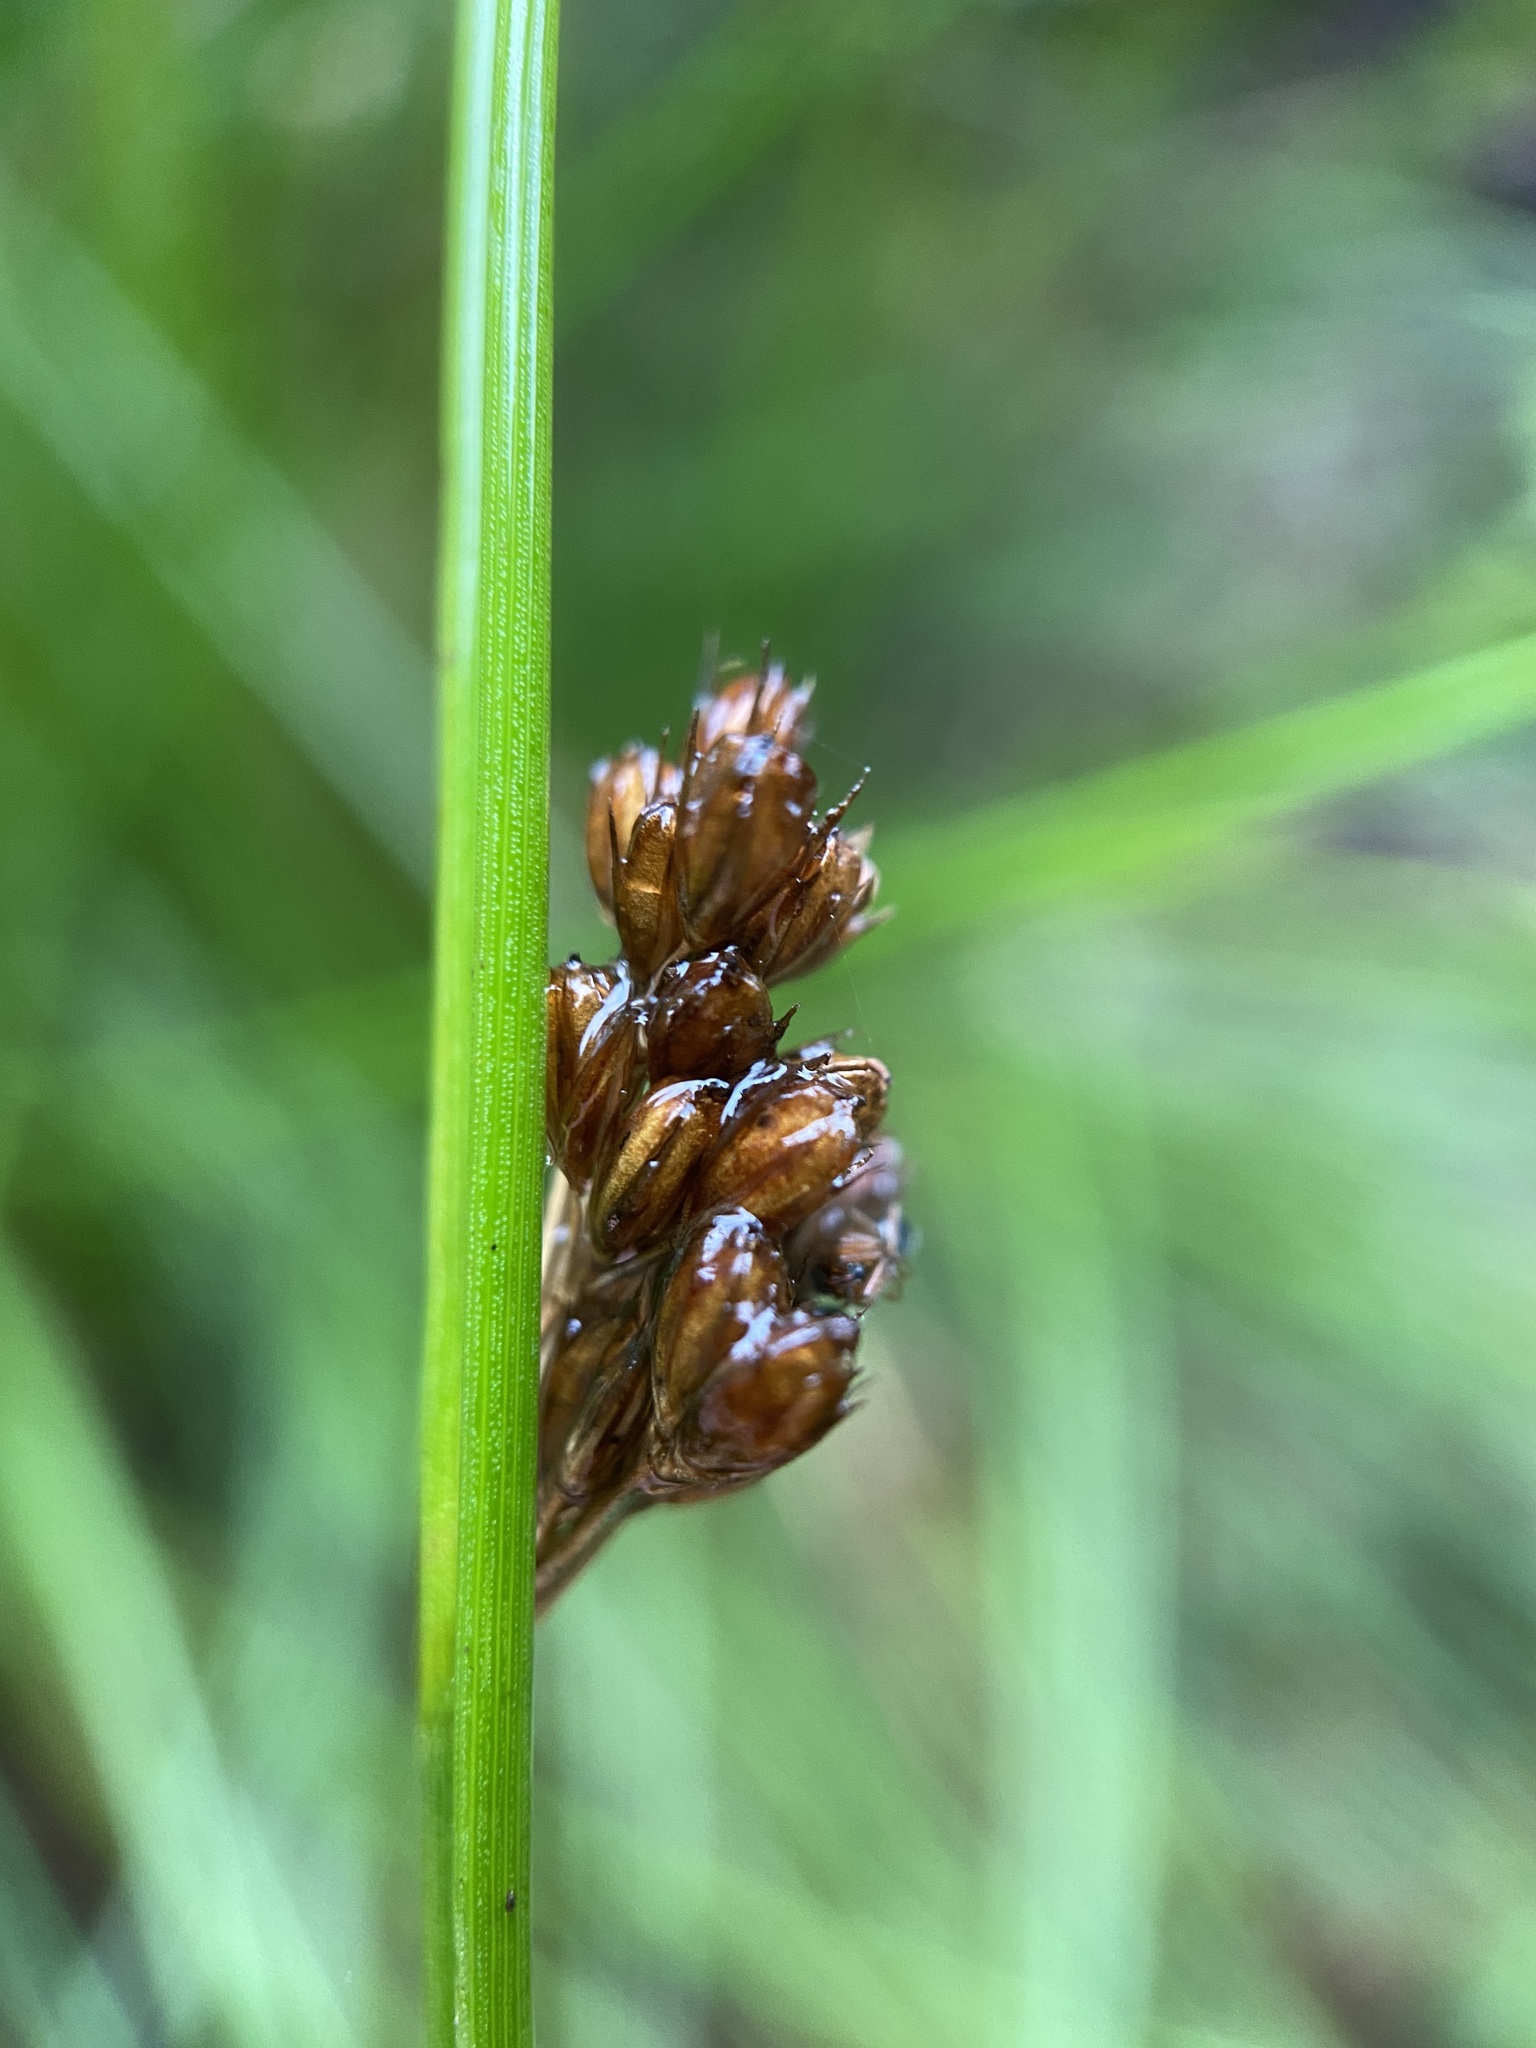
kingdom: Plantae
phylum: Tracheophyta
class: Liliopsida
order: Poales
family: Juncaceae
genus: Juncus
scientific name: Juncus effusus
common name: Soft rush
